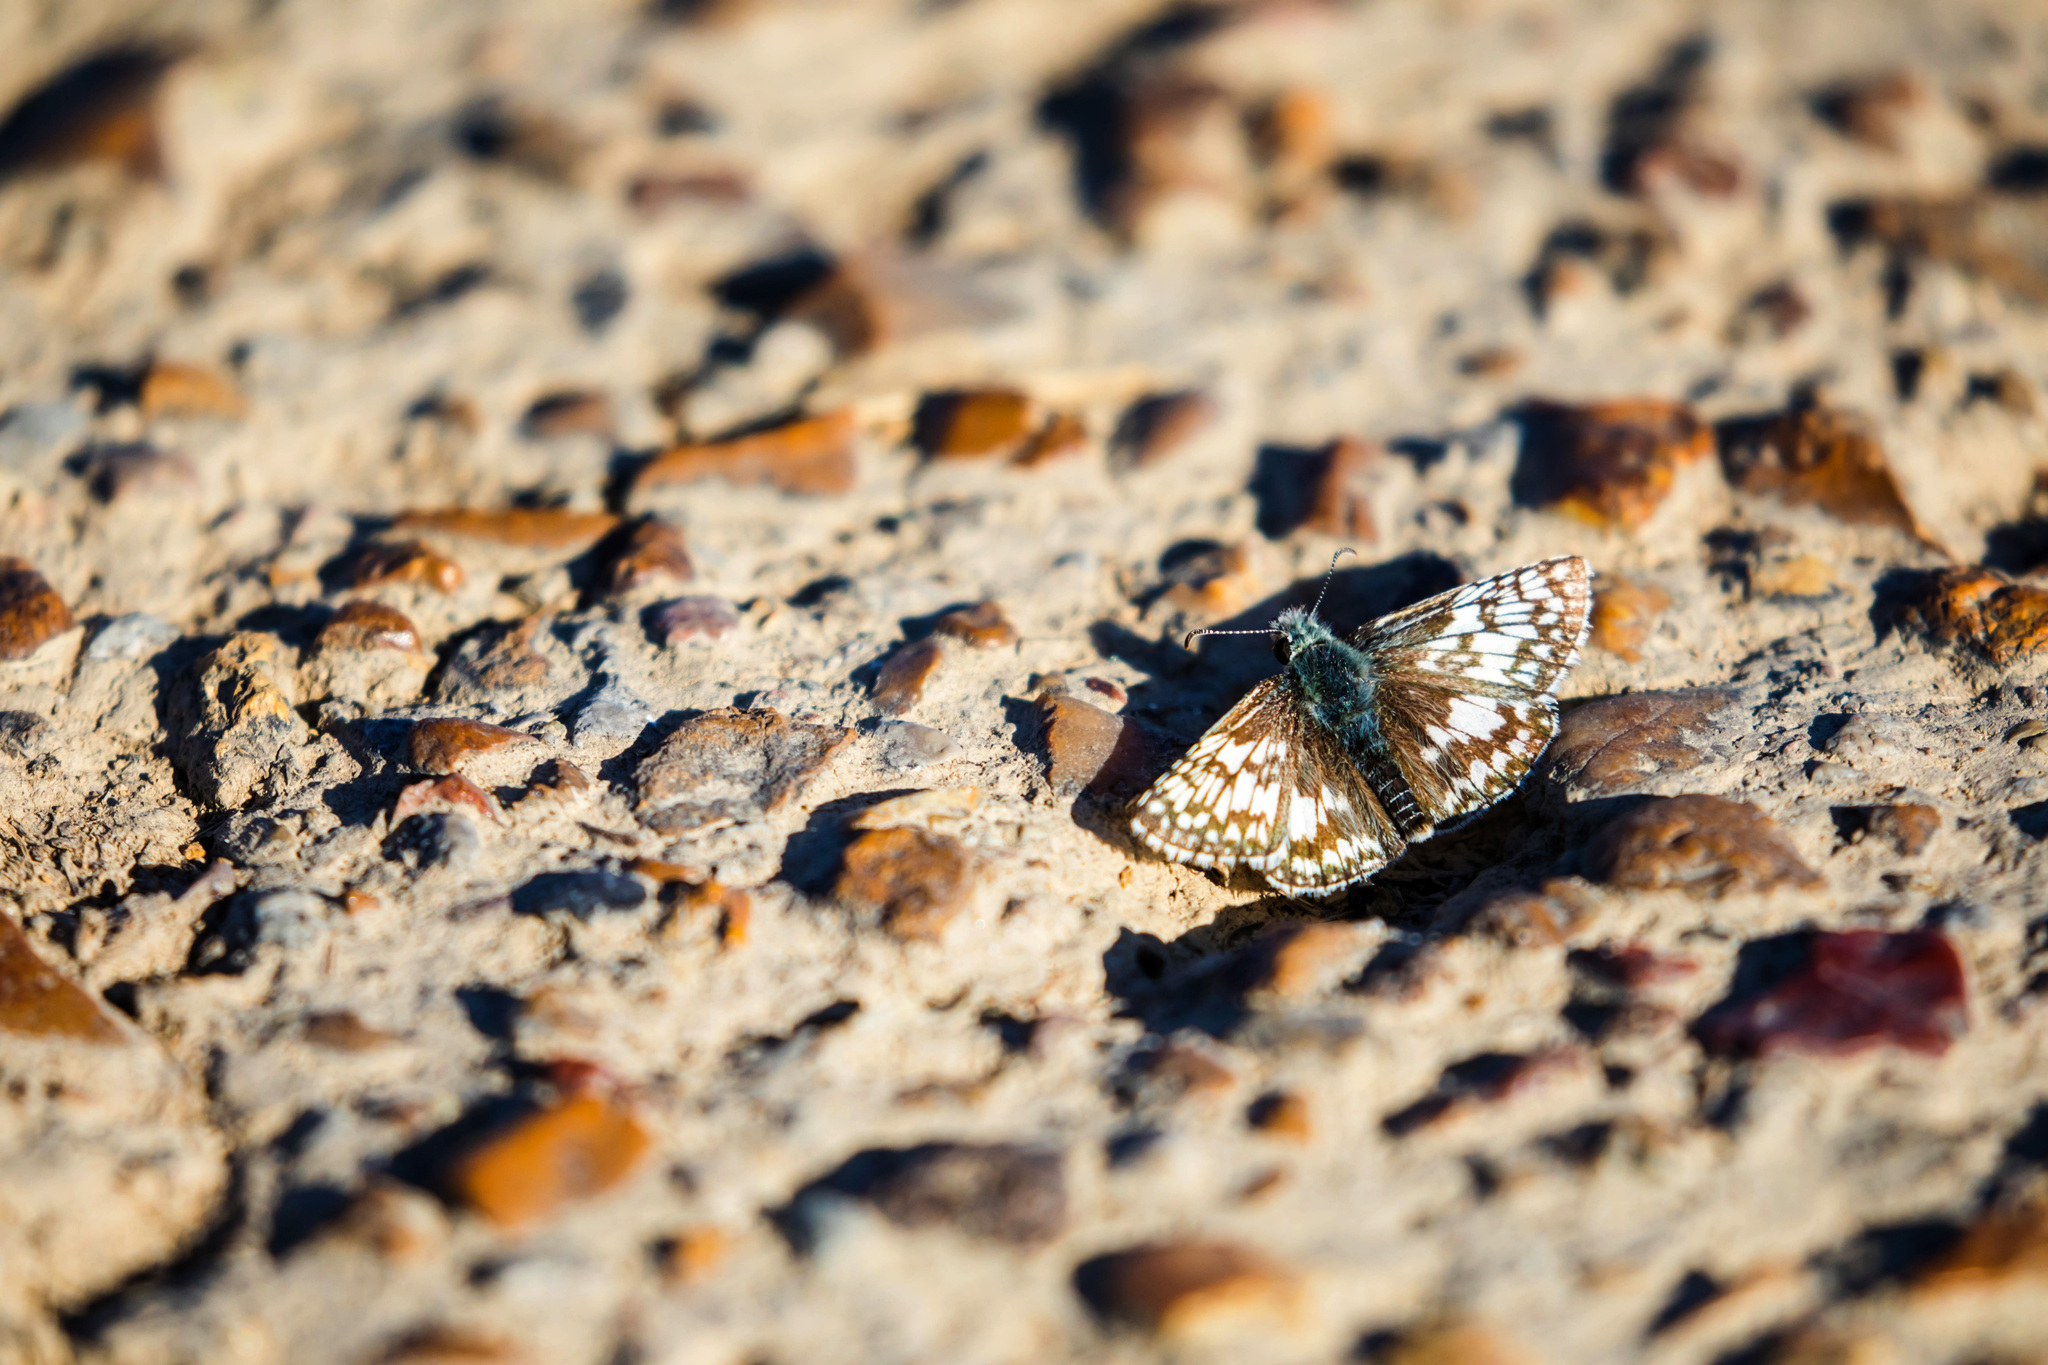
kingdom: Animalia
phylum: Arthropoda
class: Insecta
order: Lepidoptera
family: Hesperiidae
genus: Burnsius
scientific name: Burnsius communis
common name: Common checkered-skipper
